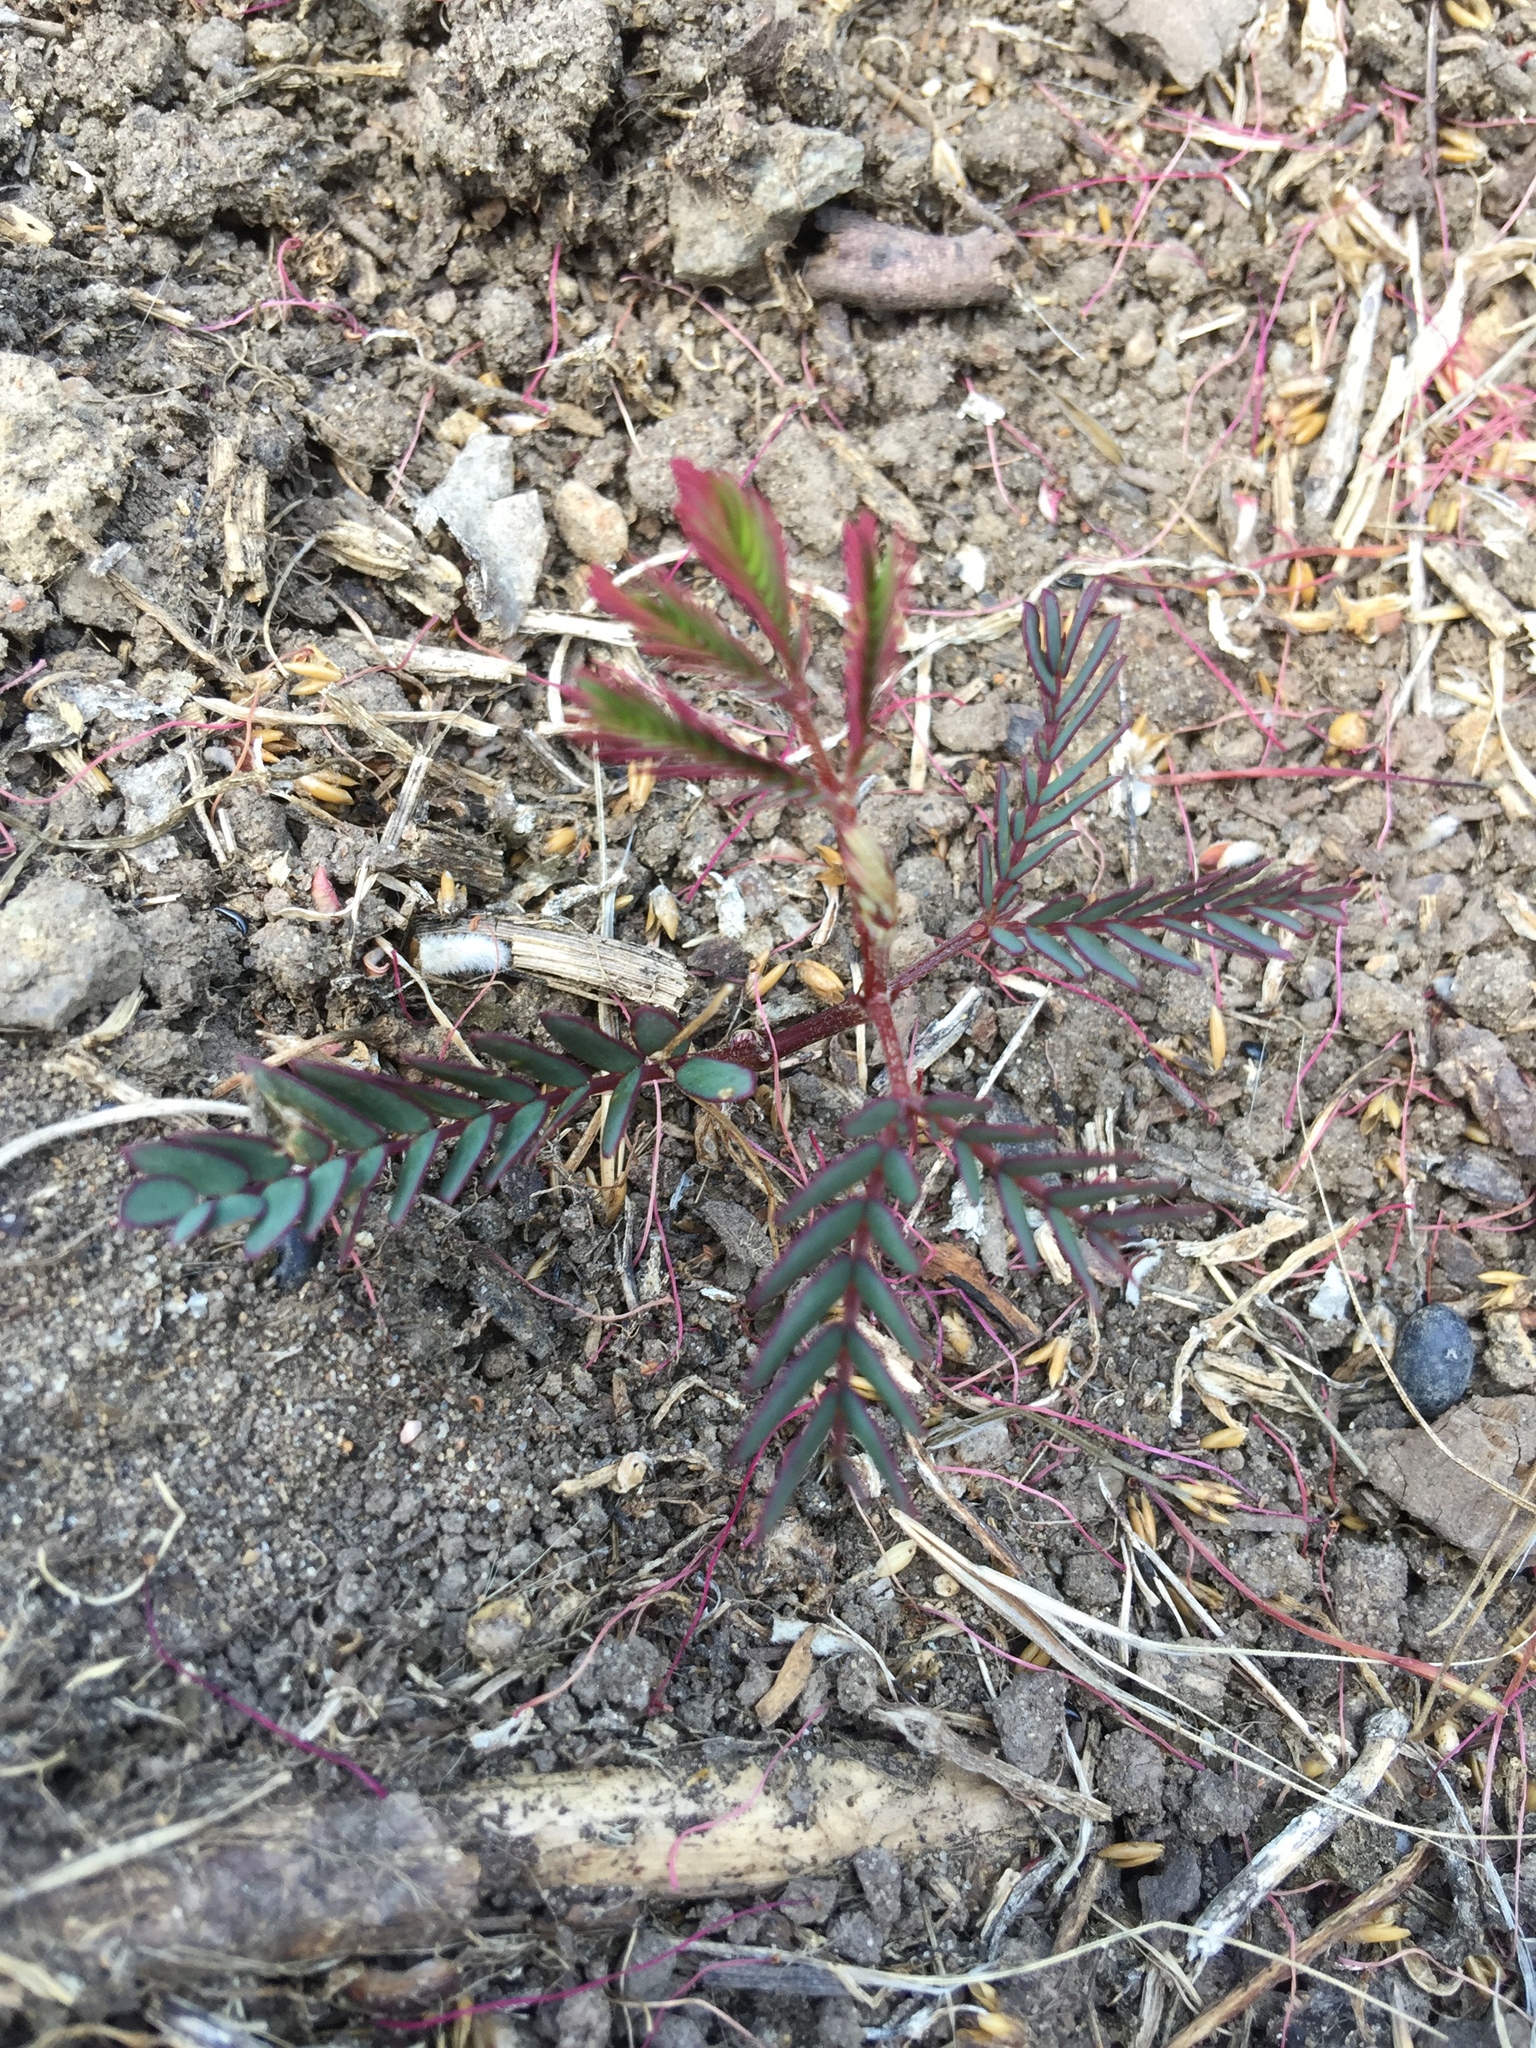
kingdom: Plantae
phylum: Tracheophyta
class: Magnoliopsida
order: Fabales
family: Fabaceae
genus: Paraserianthes
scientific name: Paraserianthes lophantha
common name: Plume albizia
